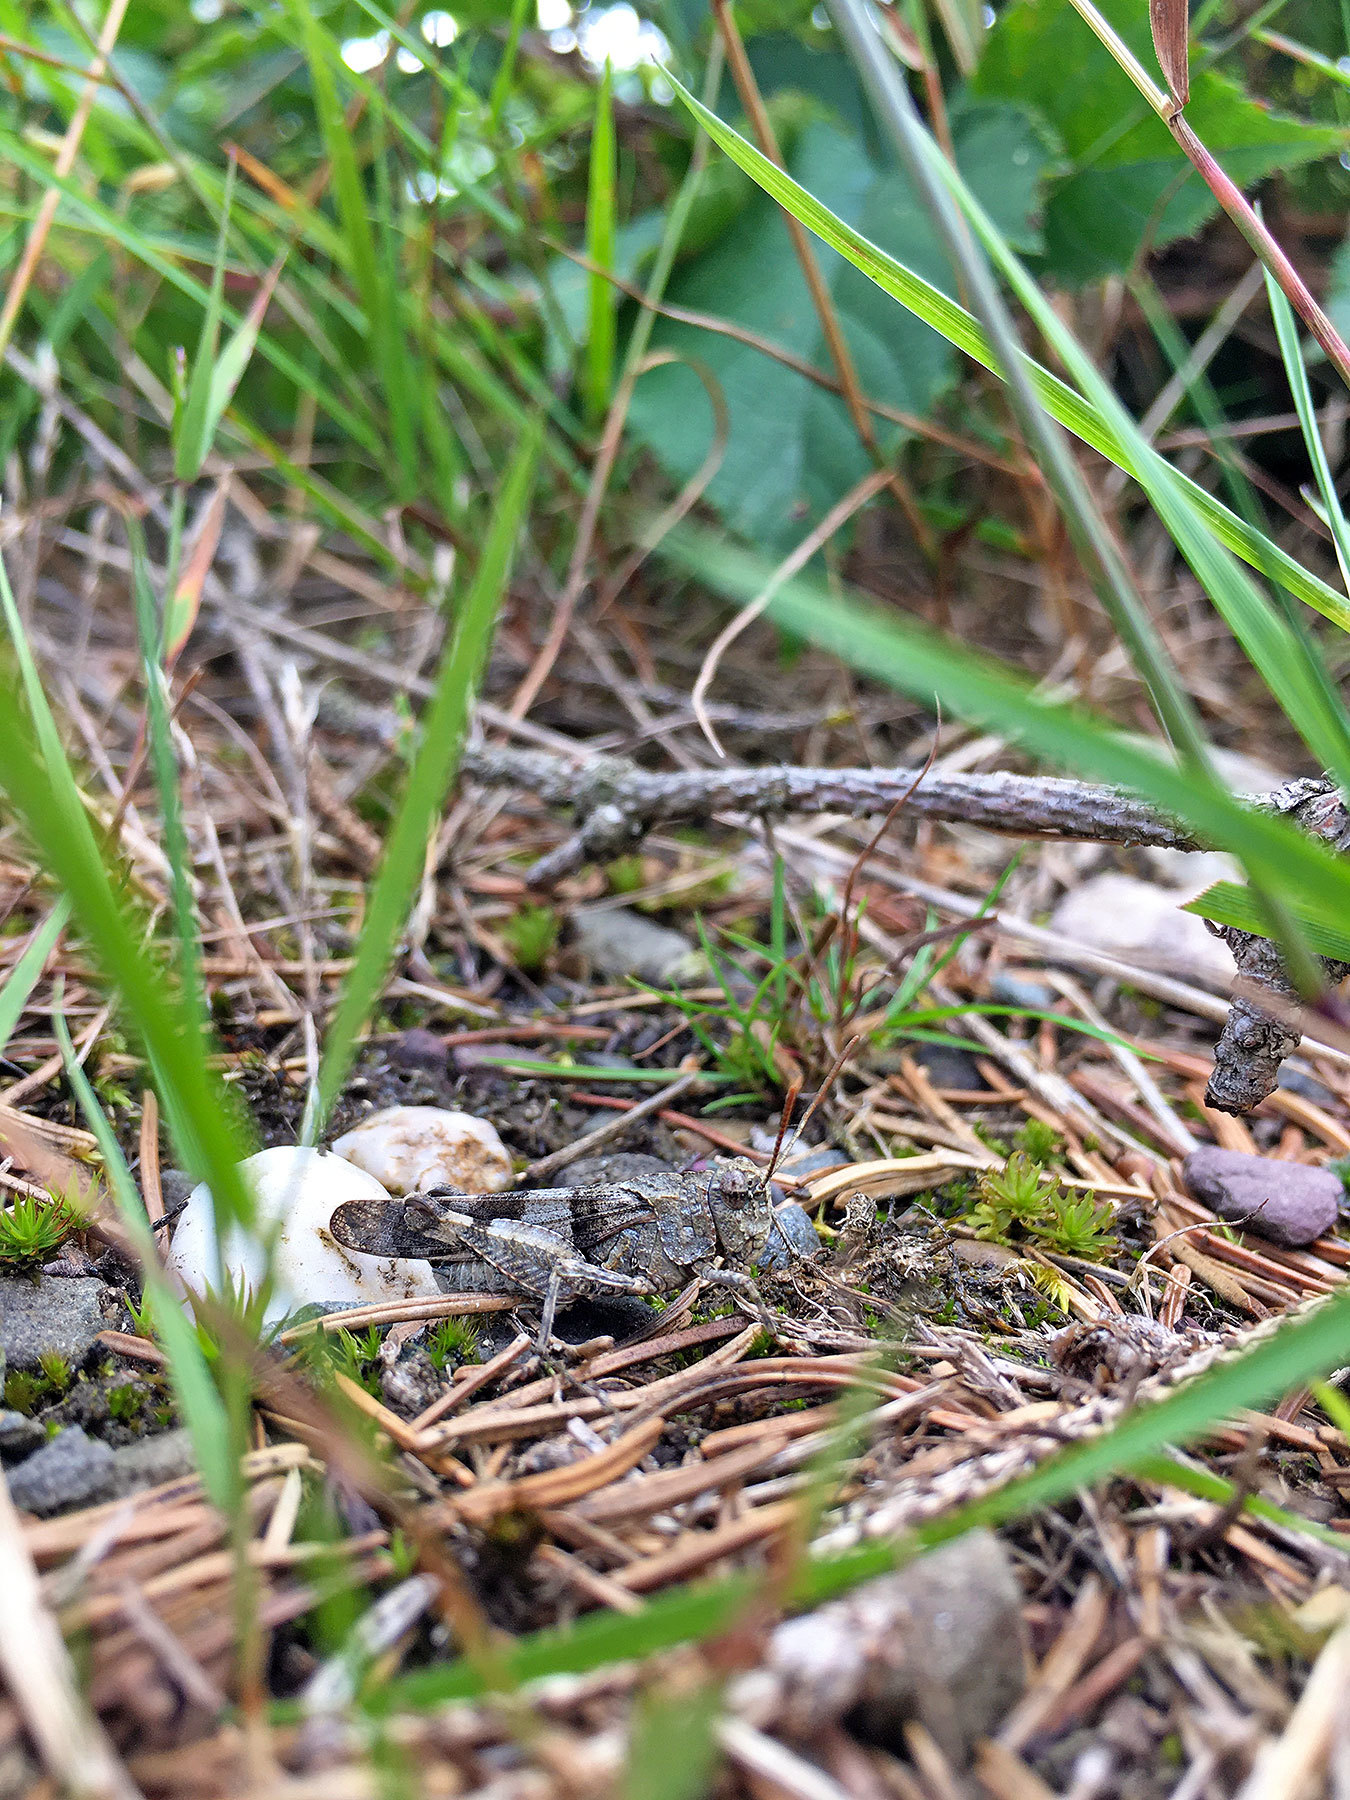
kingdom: Animalia
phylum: Arthropoda
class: Insecta
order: Orthoptera
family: Acrididae
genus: Oedipoda
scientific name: Oedipoda caerulescens
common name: Blue-winged grasshopper
